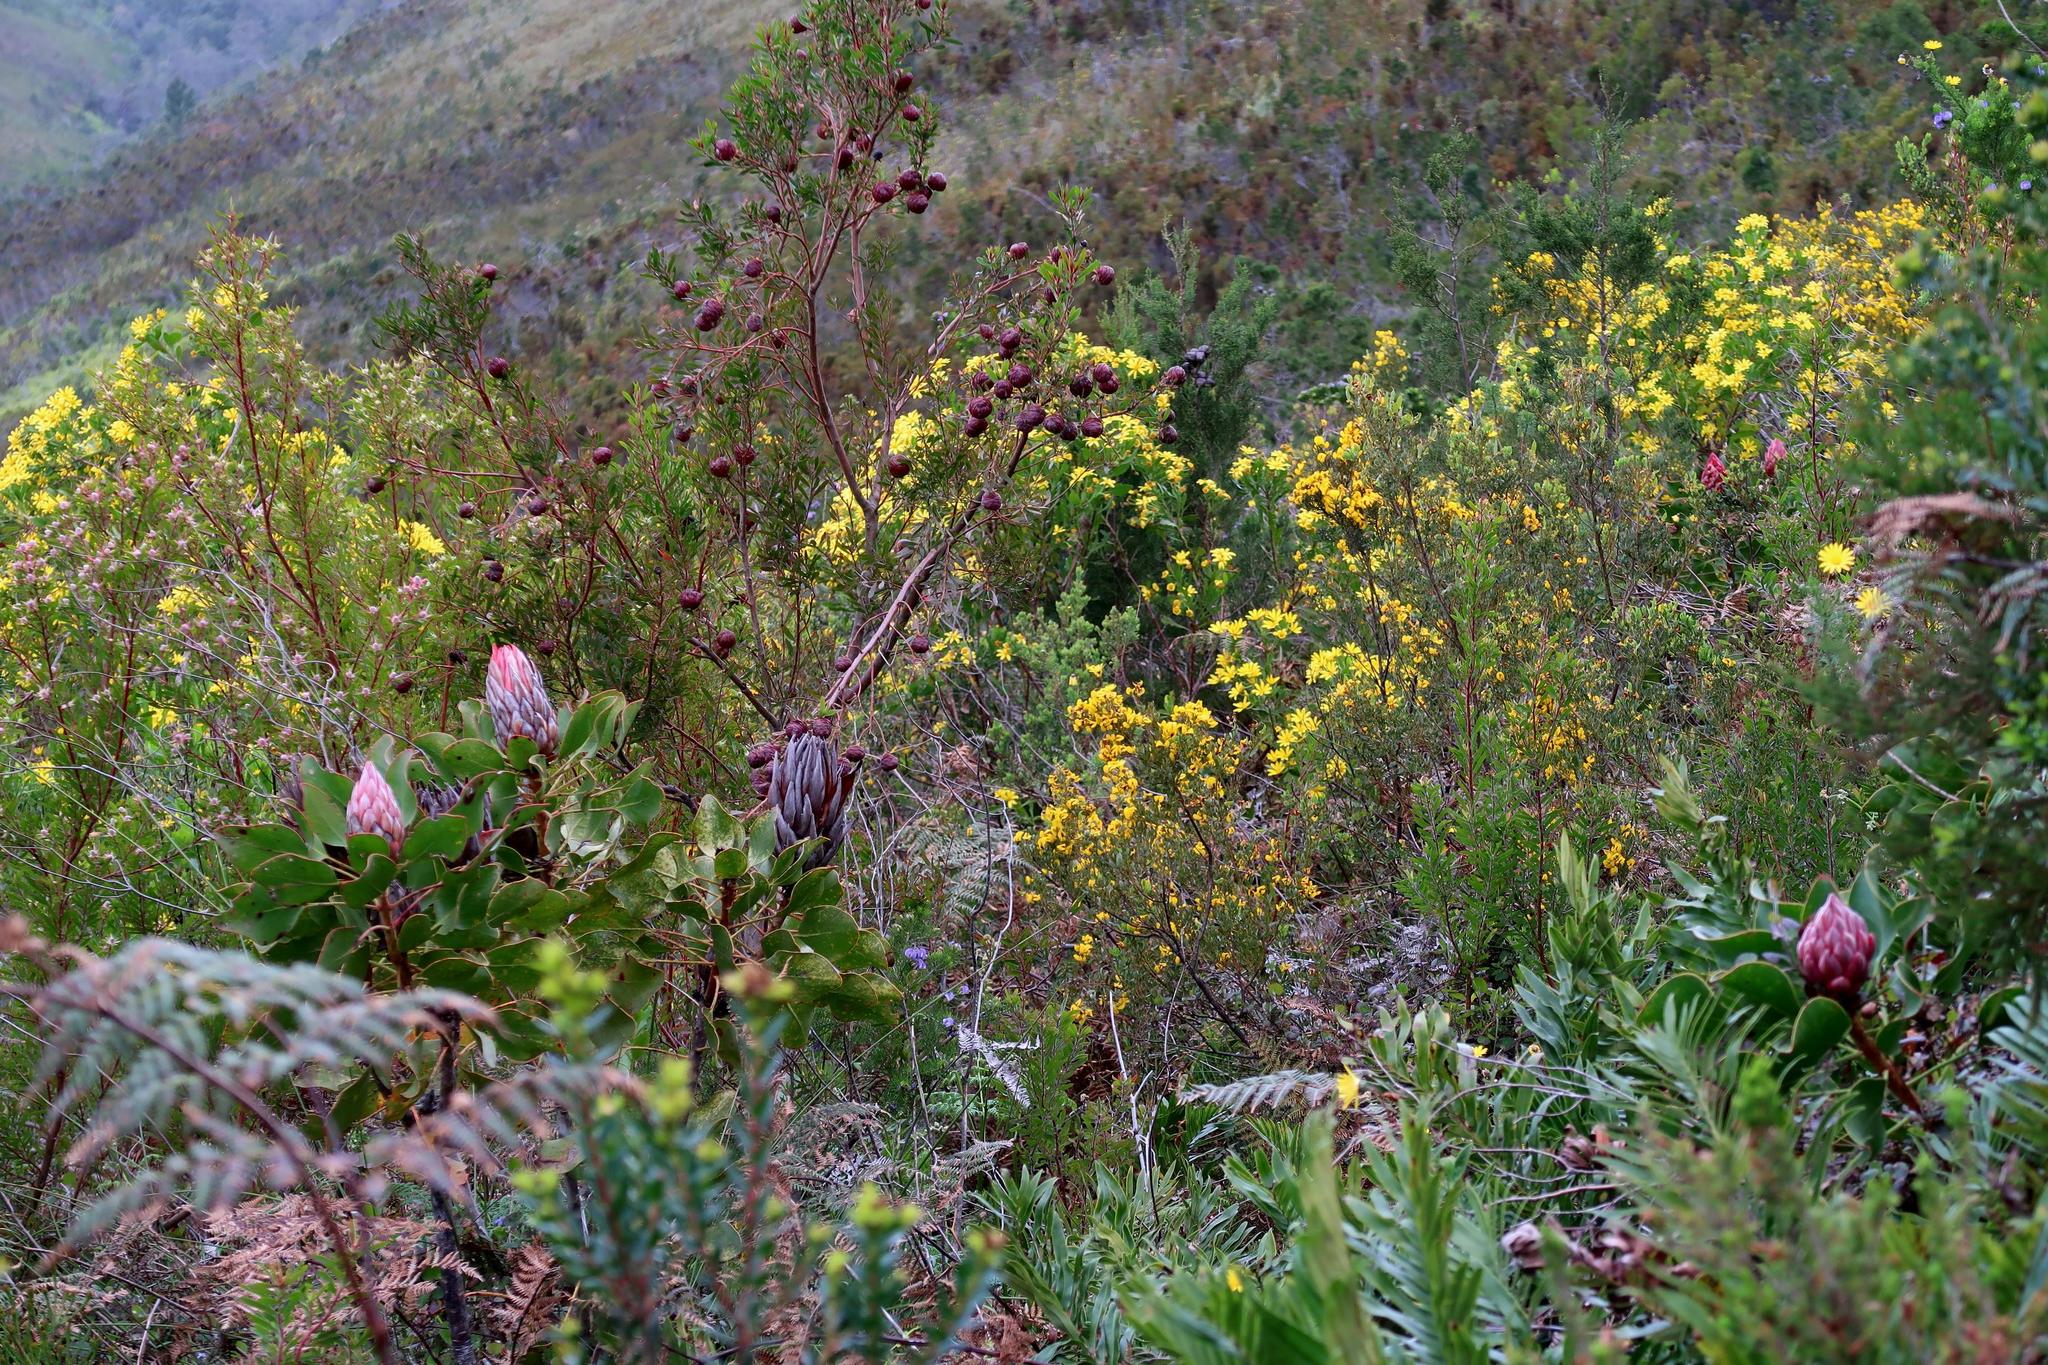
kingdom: Plantae
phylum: Tracheophyta
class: Magnoliopsida
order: Proteales
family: Proteaceae
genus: Leucadendron
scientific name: Leucadendron conicum
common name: Garden route conebush
